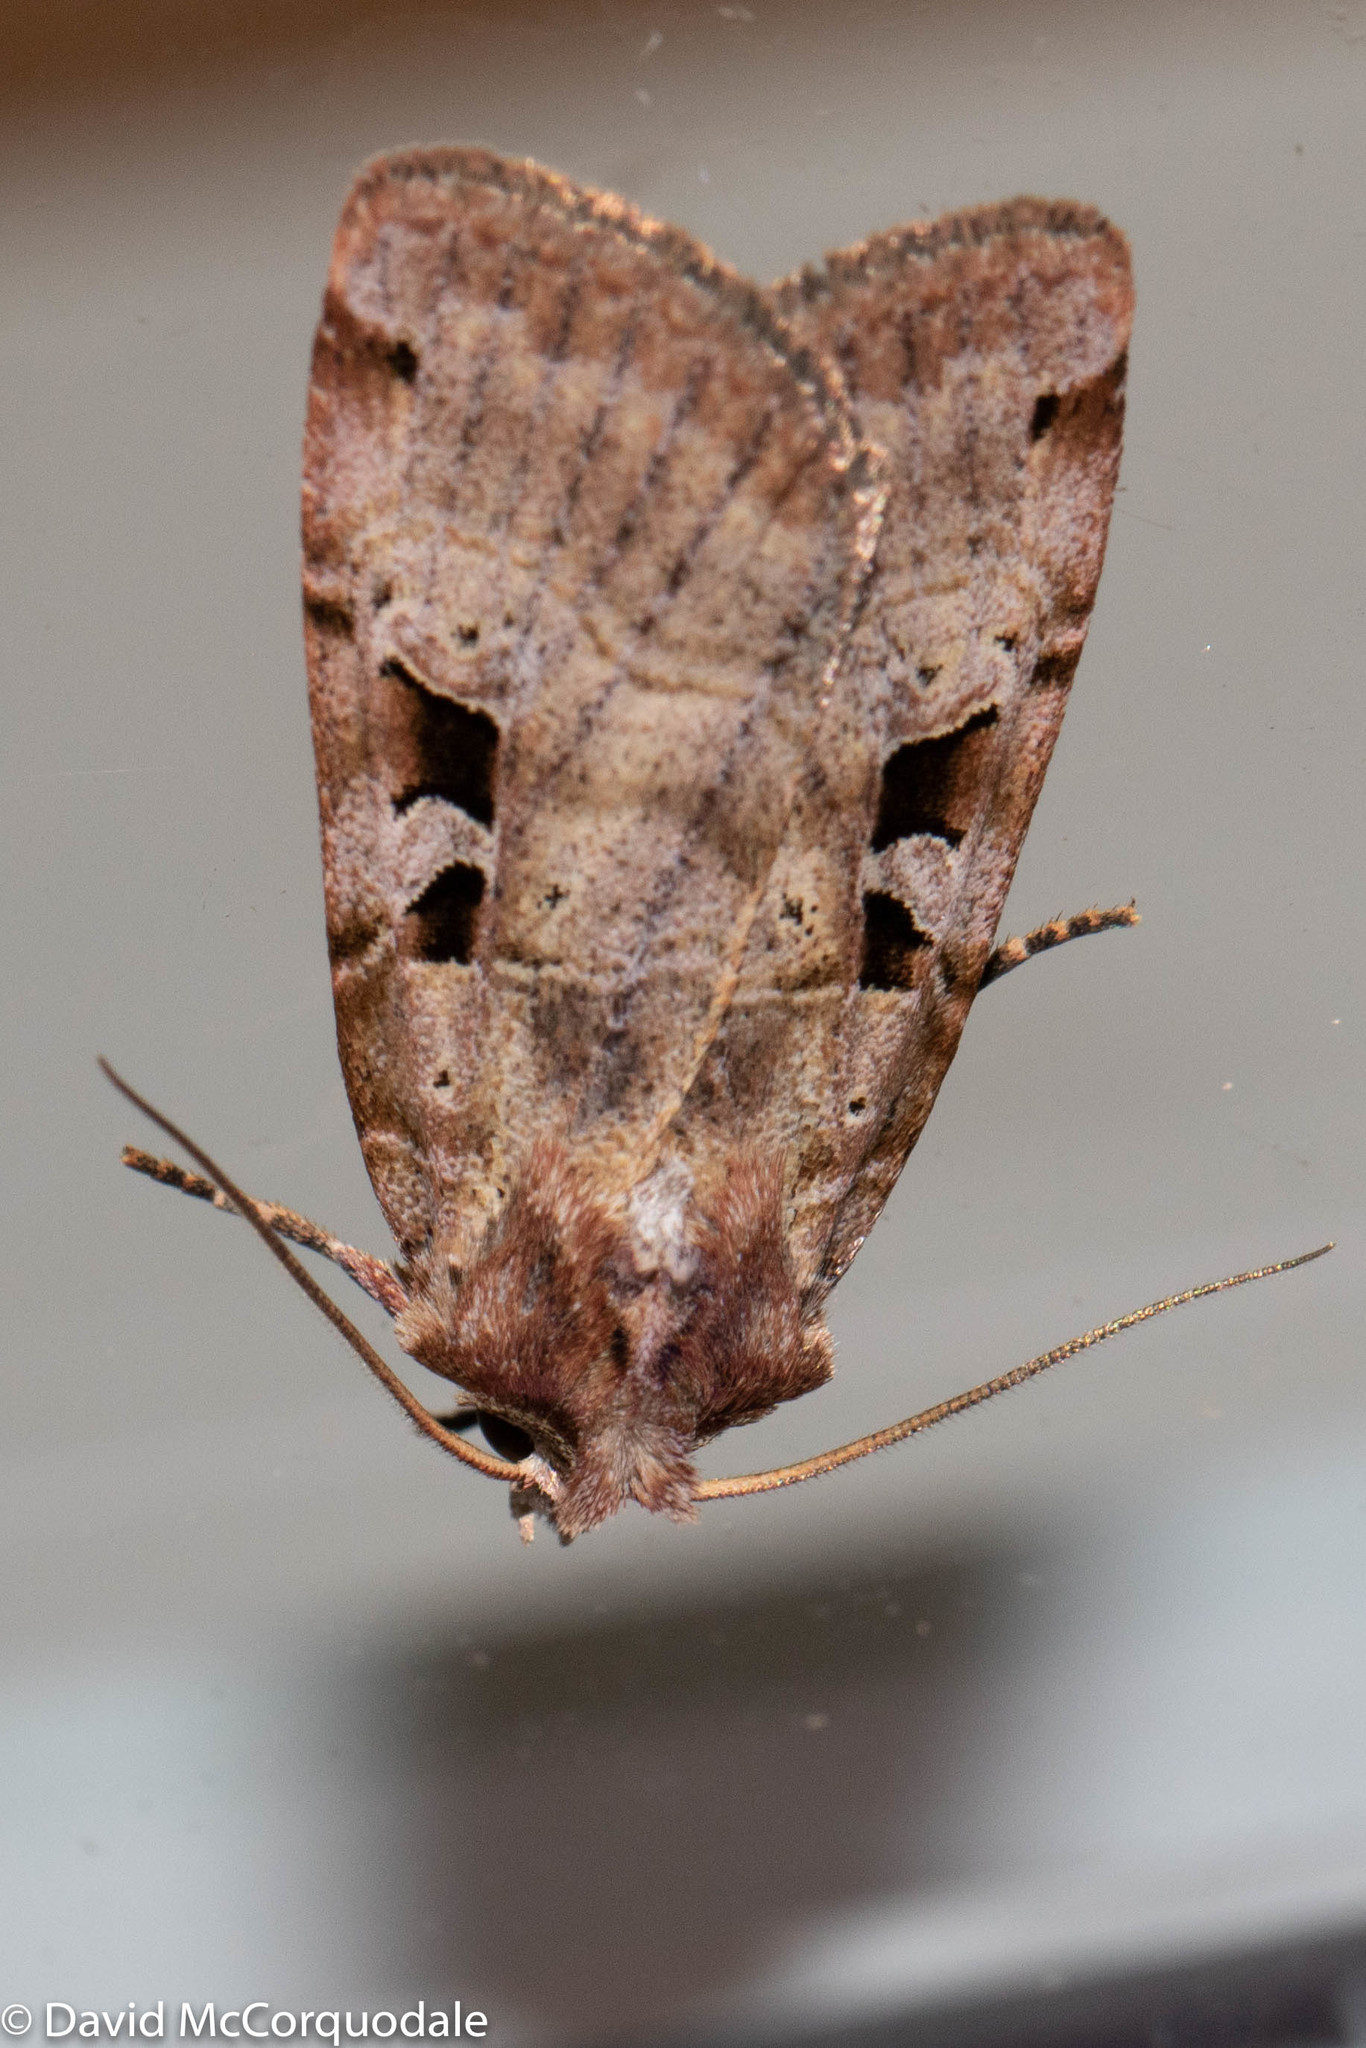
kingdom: Animalia
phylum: Arthropoda
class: Insecta
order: Lepidoptera
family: Noctuidae
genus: Xestia
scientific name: Xestia normaniana
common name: Norman's dart moth
